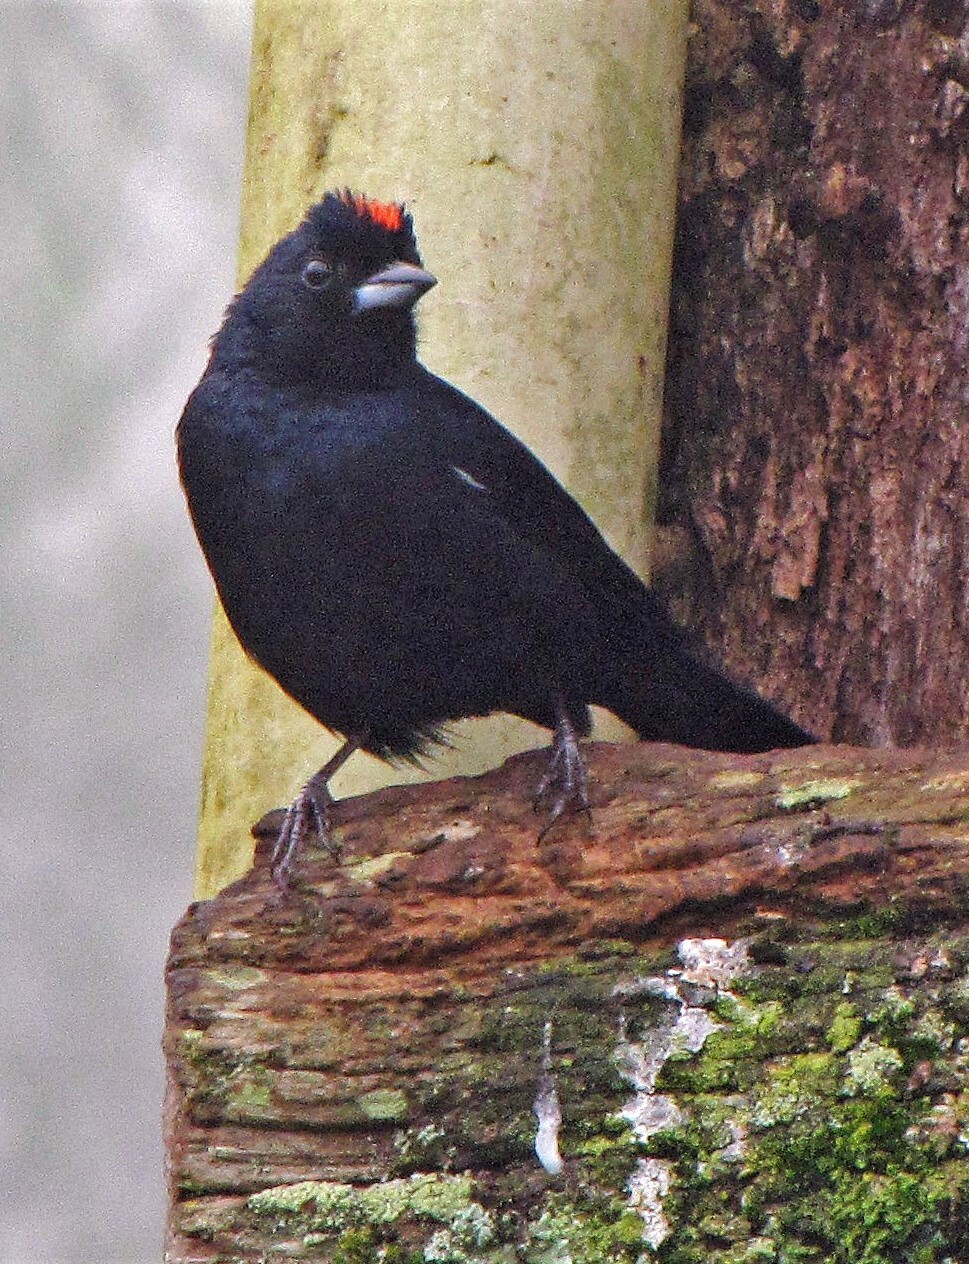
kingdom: Animalia
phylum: Chordata
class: Aves
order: Passeriformes
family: Thraupidae
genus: Tachyphonus
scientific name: Tachyphonus coronatus
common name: Ruby-crowned tanager
